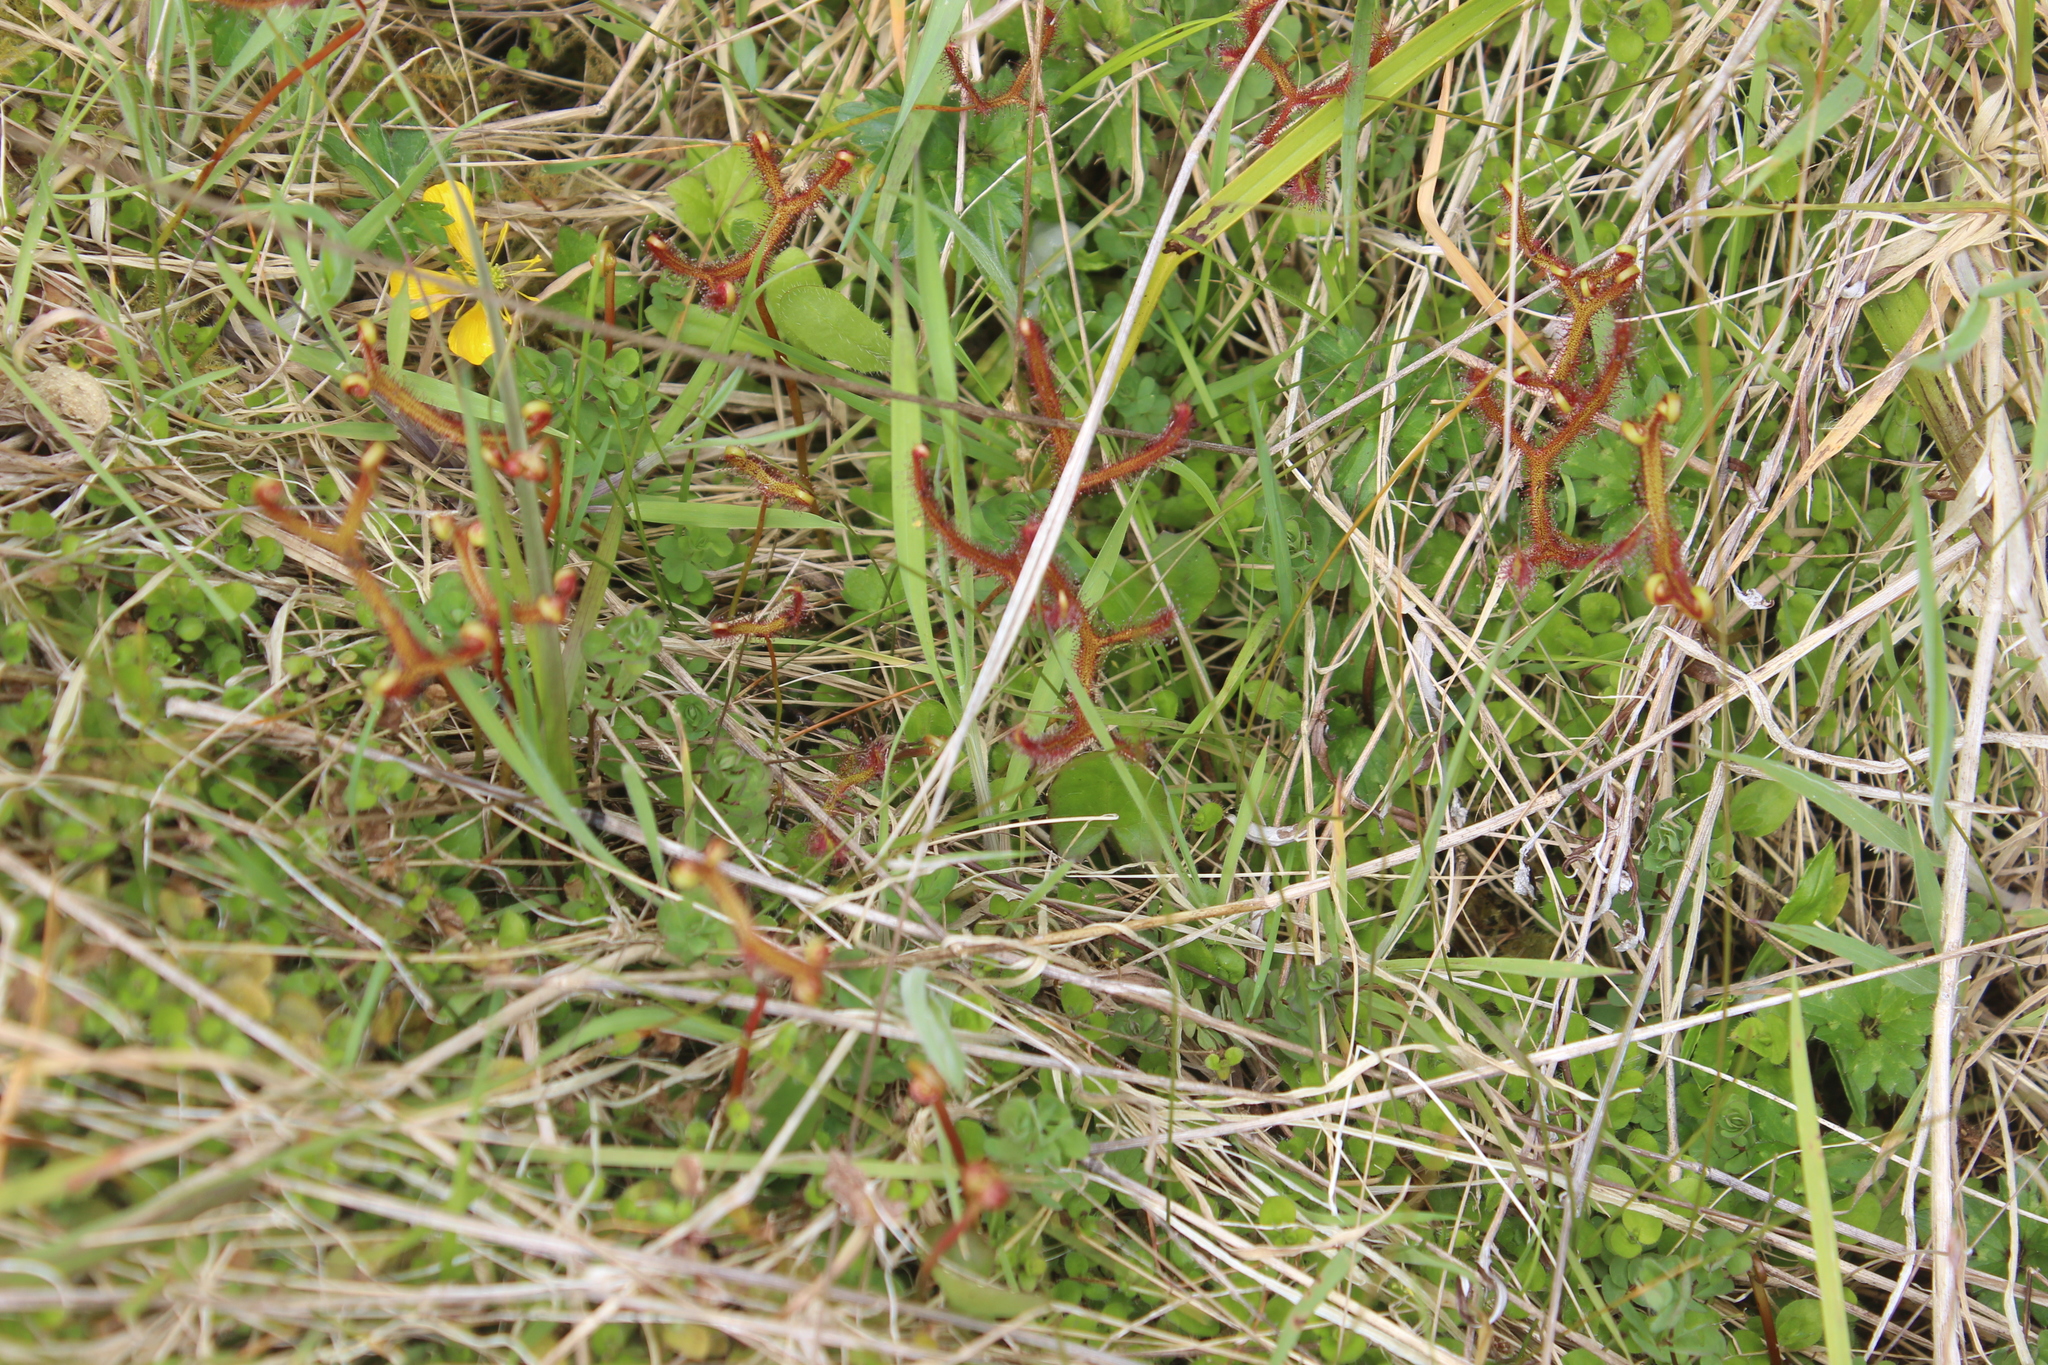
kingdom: Plantae
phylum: Tracheophyta
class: Magnoliopsida
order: Caryophyllales
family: Droseraceae
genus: Drosera
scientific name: Drosera binata
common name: Forked sundew
